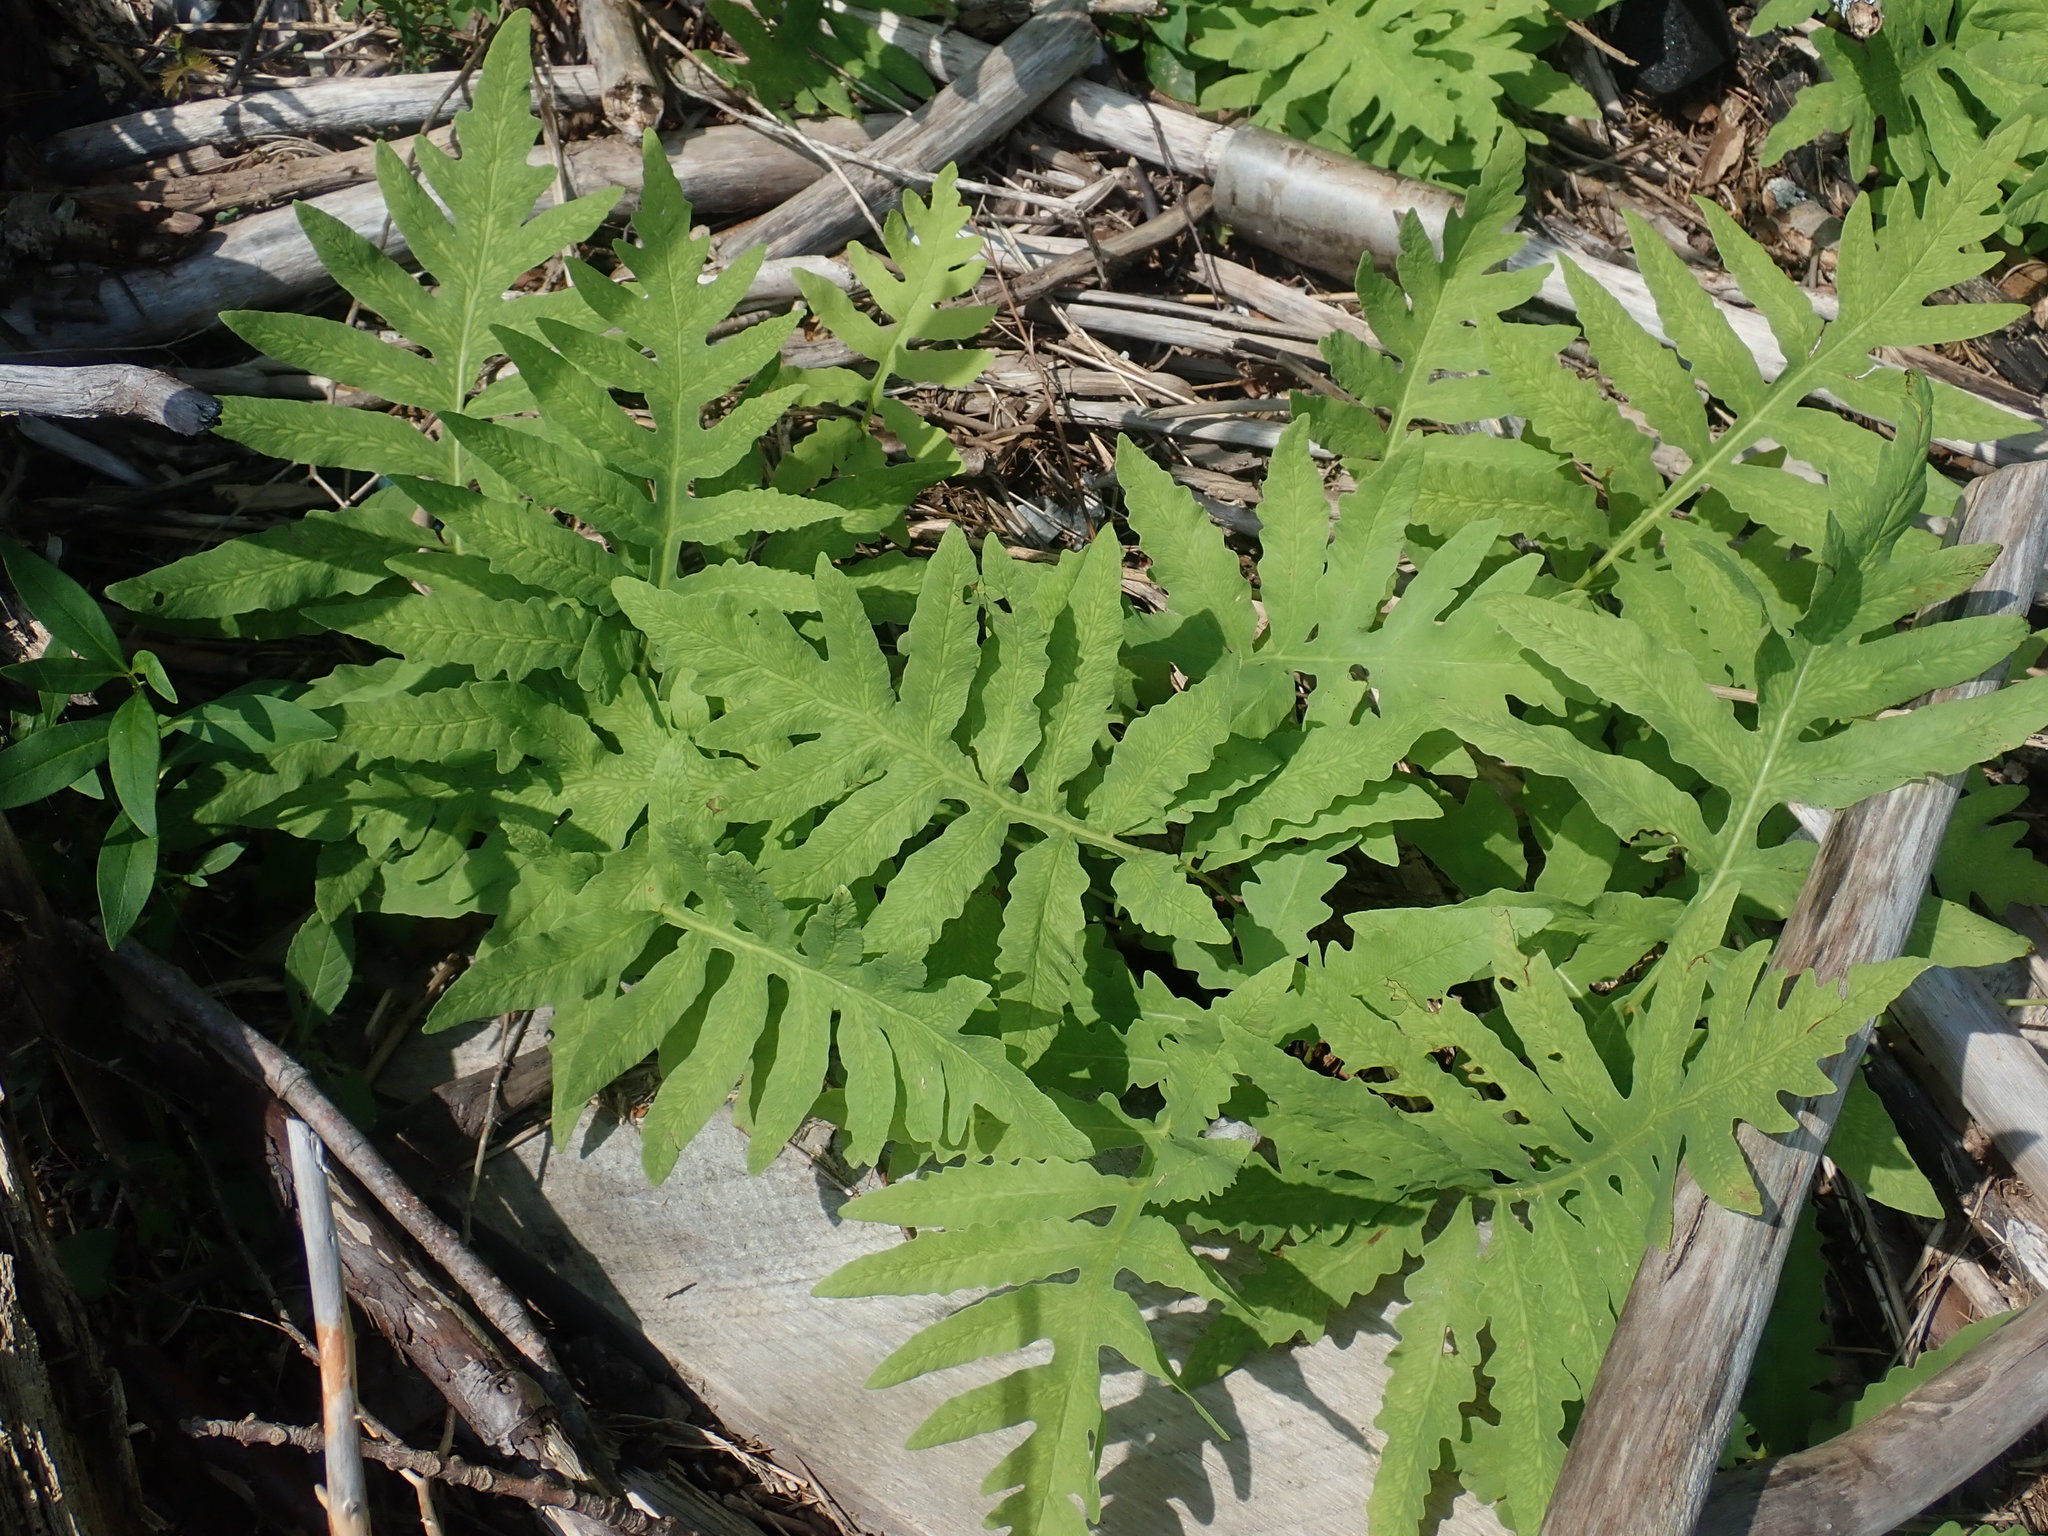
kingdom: Plantae
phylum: Tracheophyta
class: Polypodiopsida
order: Polypodiales
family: Onocleaceae
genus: Onoclea
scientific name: Onoclea sensibilis
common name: Sensitive fern
